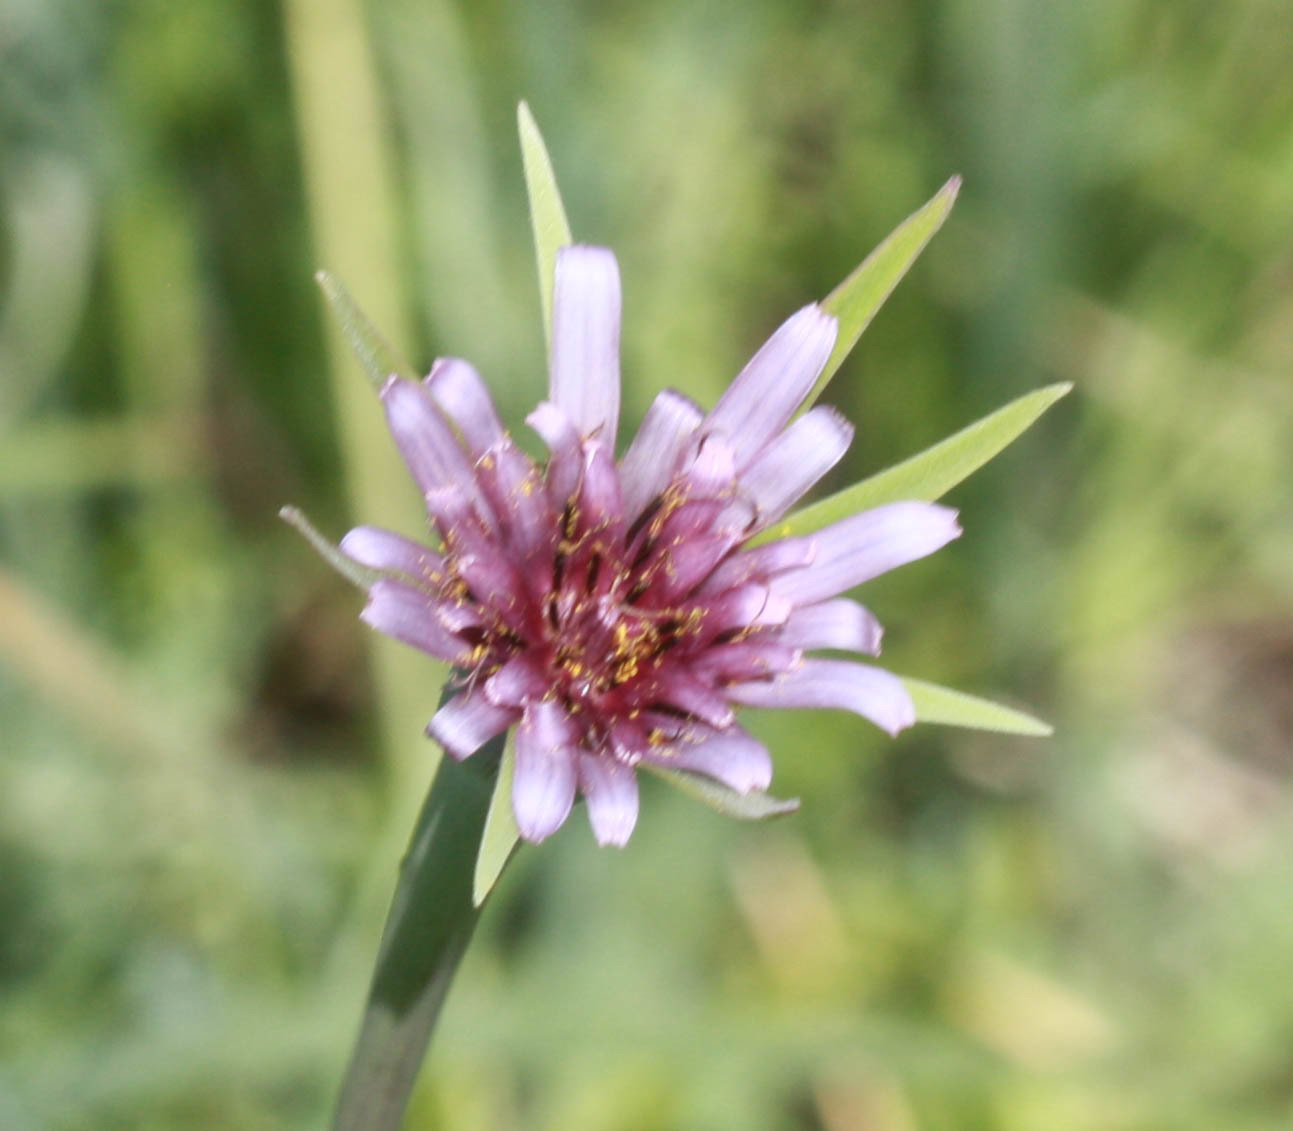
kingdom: Plantae
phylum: Tracheophyta
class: Magnoliopsida
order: Asterales
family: Asteraceae
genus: Tragopogon
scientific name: Tragopogon porrifolius
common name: Salsify
